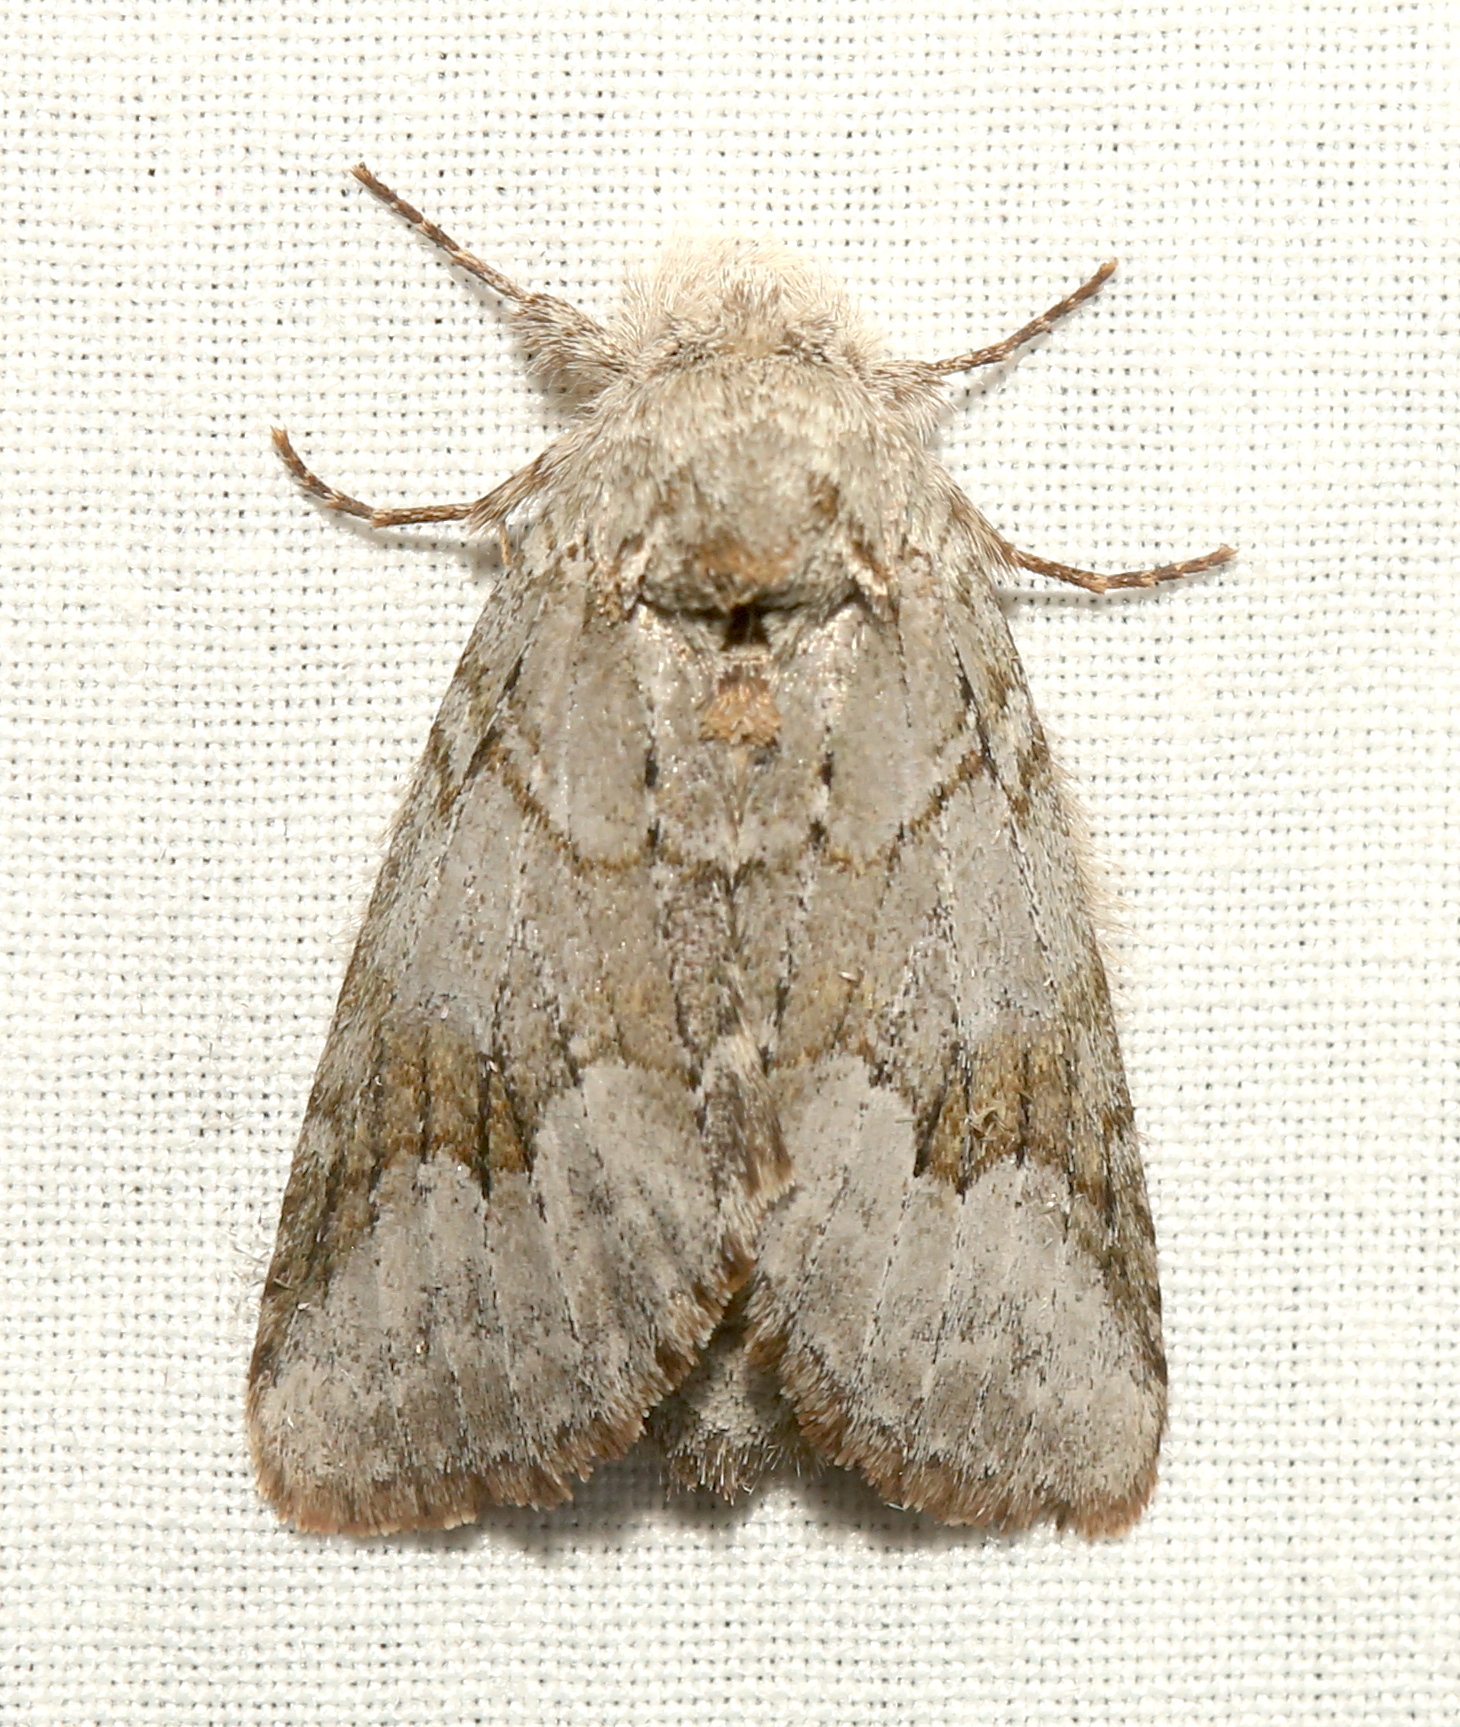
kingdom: Animalia
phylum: Arthropoda
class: Insecta
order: Lepidoptera
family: Notodontidae
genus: Lochmaeus
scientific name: Lochmaeus bilineata
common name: Double-lined prominent
